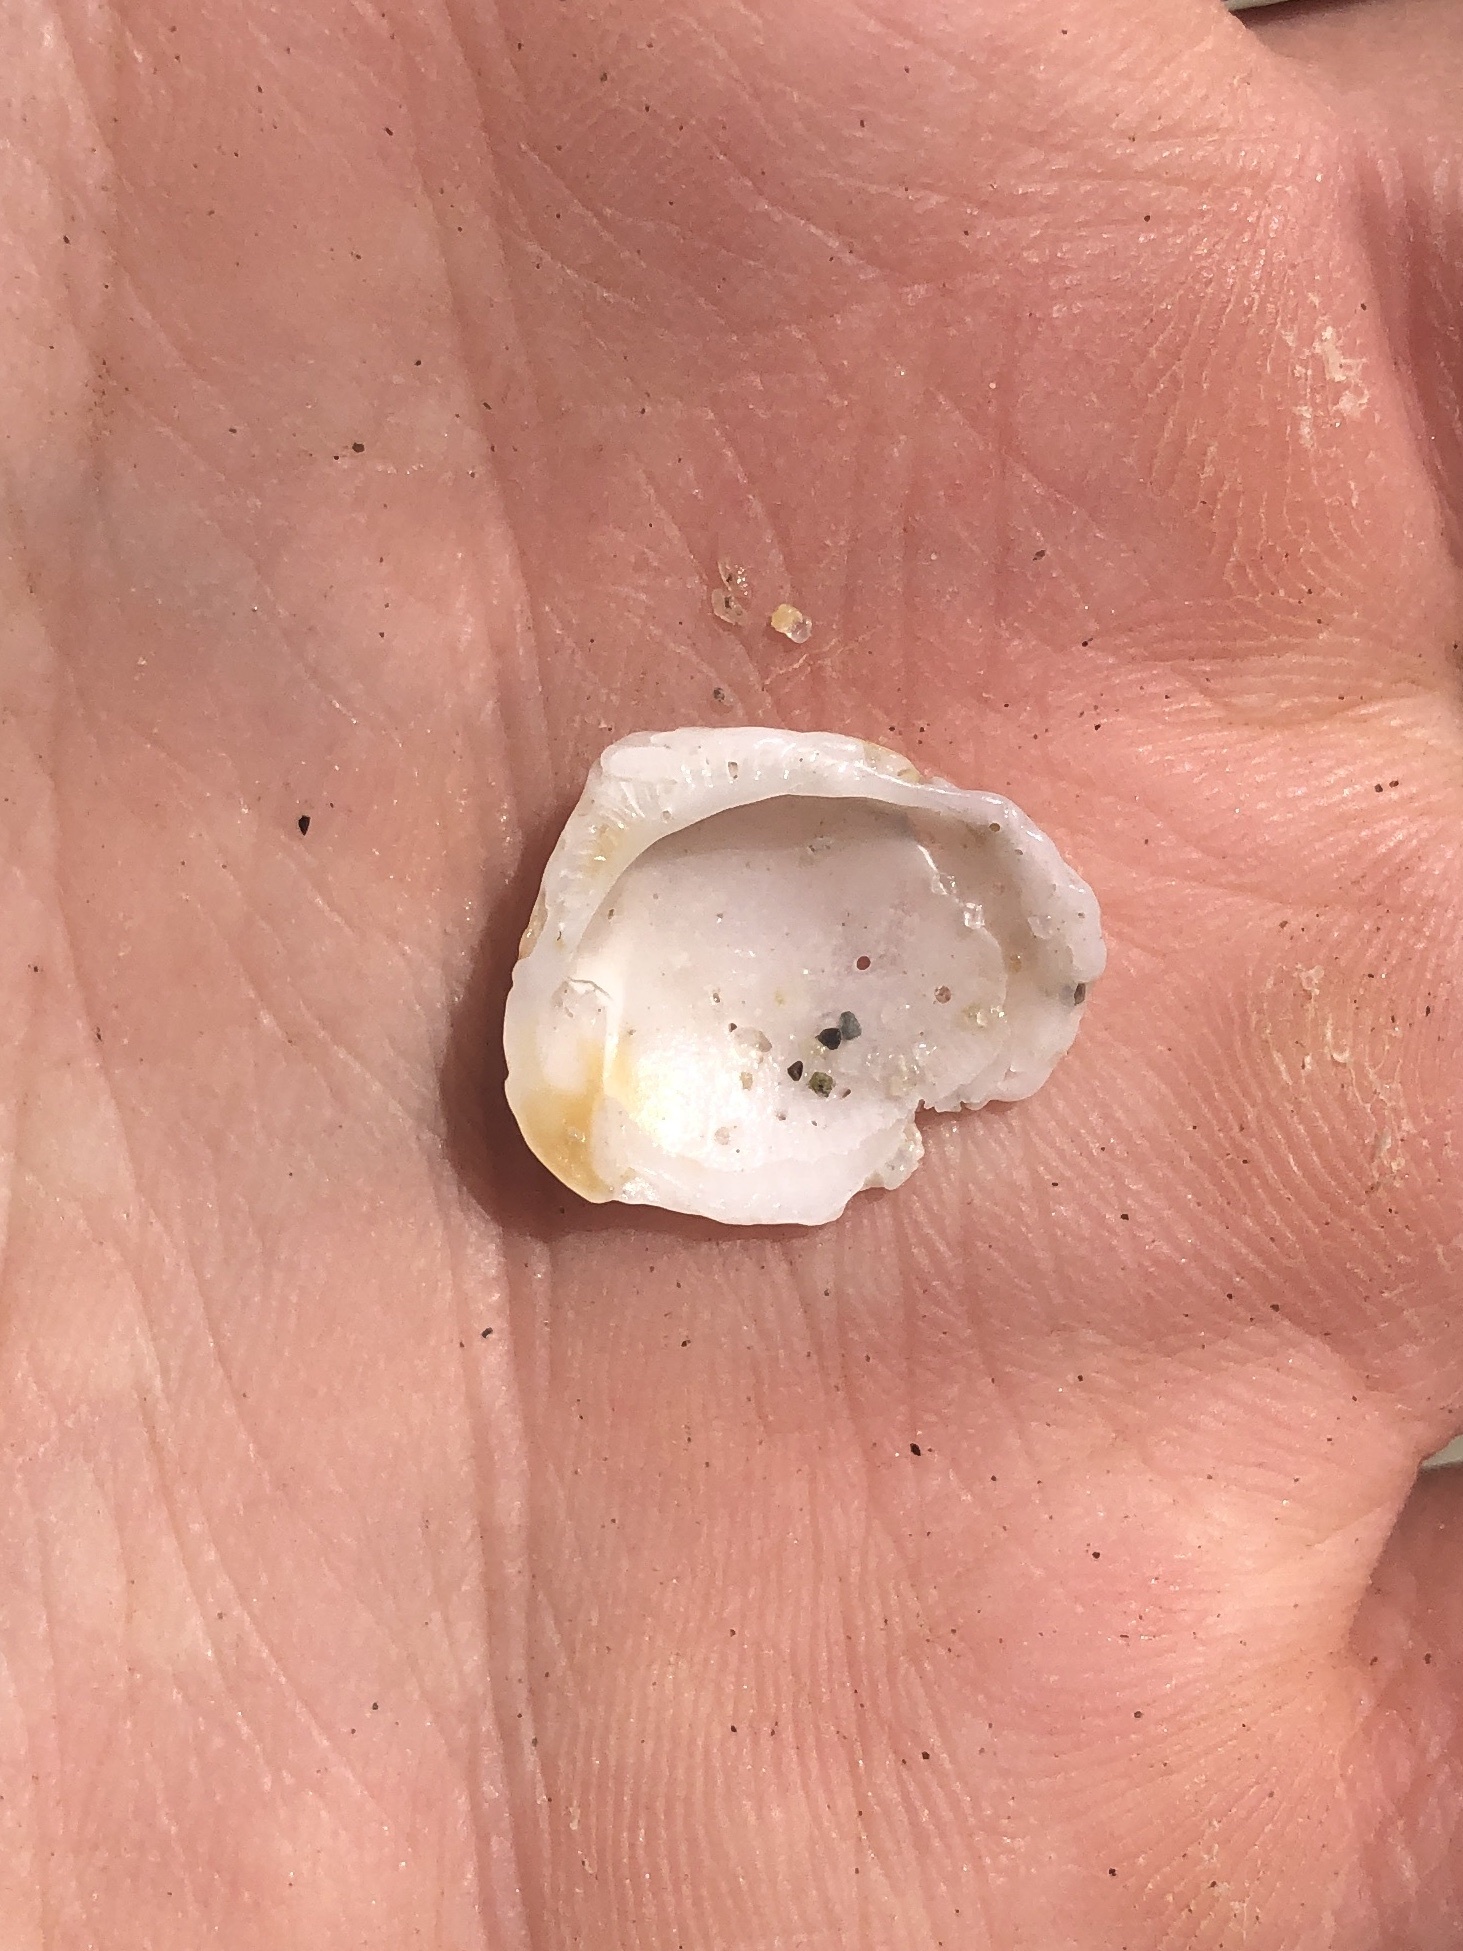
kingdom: Animalia
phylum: Mollusca
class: Bivalvia
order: Arcida
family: Glycymerididae
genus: Glycymeris
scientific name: Glycymeris septentrionalis
